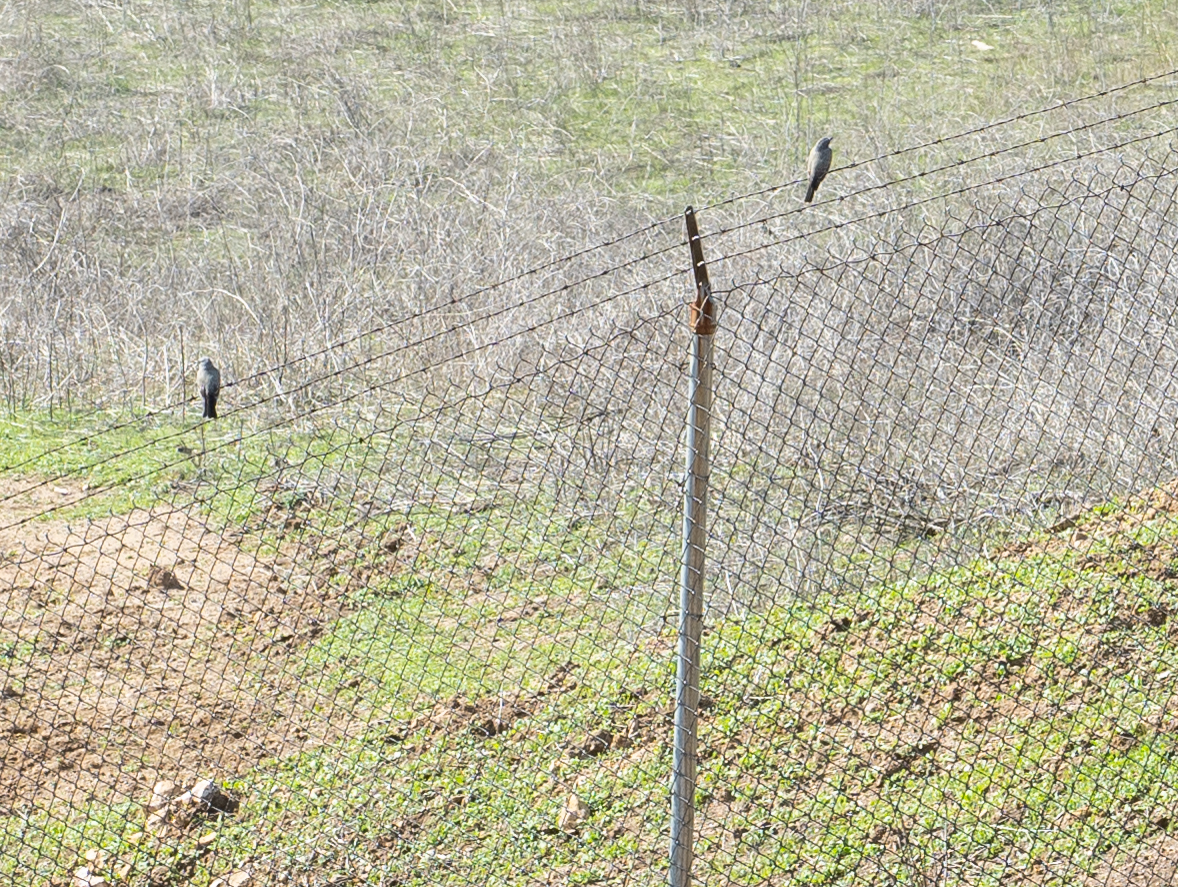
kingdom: Animalia
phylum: Chordata
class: Aves
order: Passeriformes
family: Tyrannidae
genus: Tyrannus
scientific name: Tyrannus vociferans
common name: Cassin's kingbird
